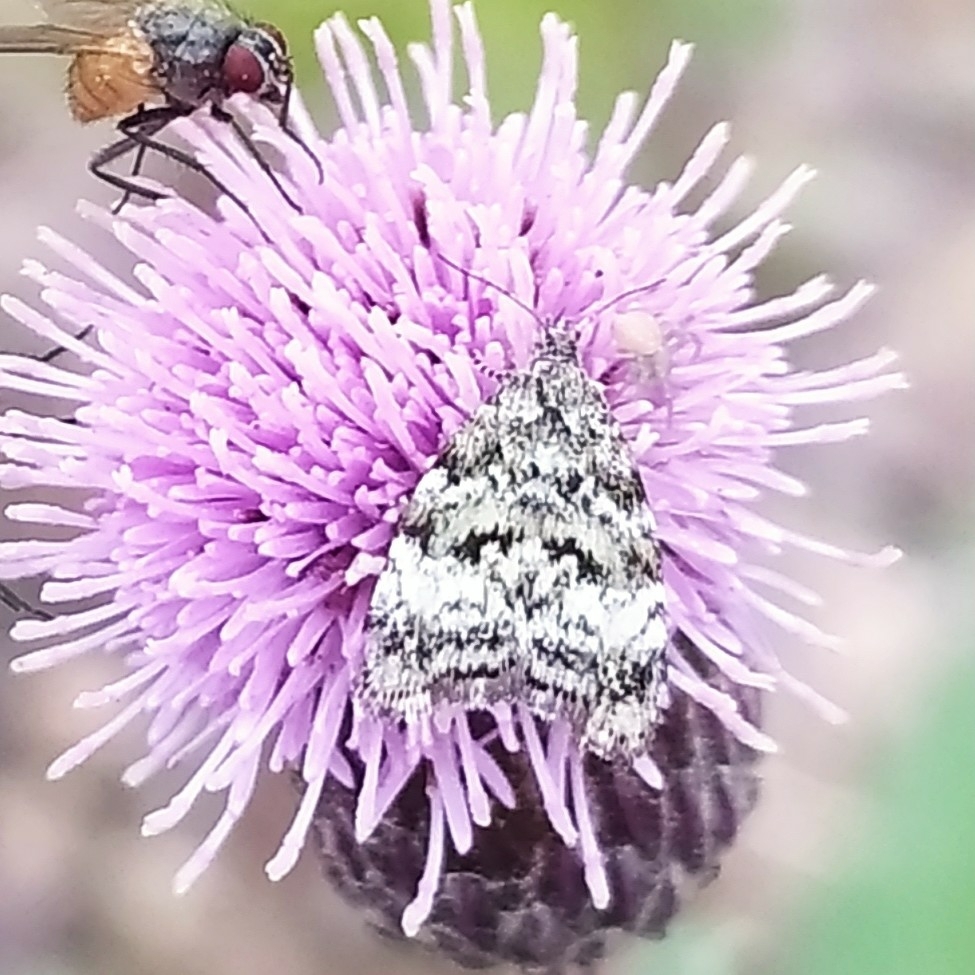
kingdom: Animalia
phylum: Arthropoda
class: Insecta
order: Lepidoptera
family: Choreutidae
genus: Choreutis
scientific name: Choreutis diana
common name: Inverness twitcher
